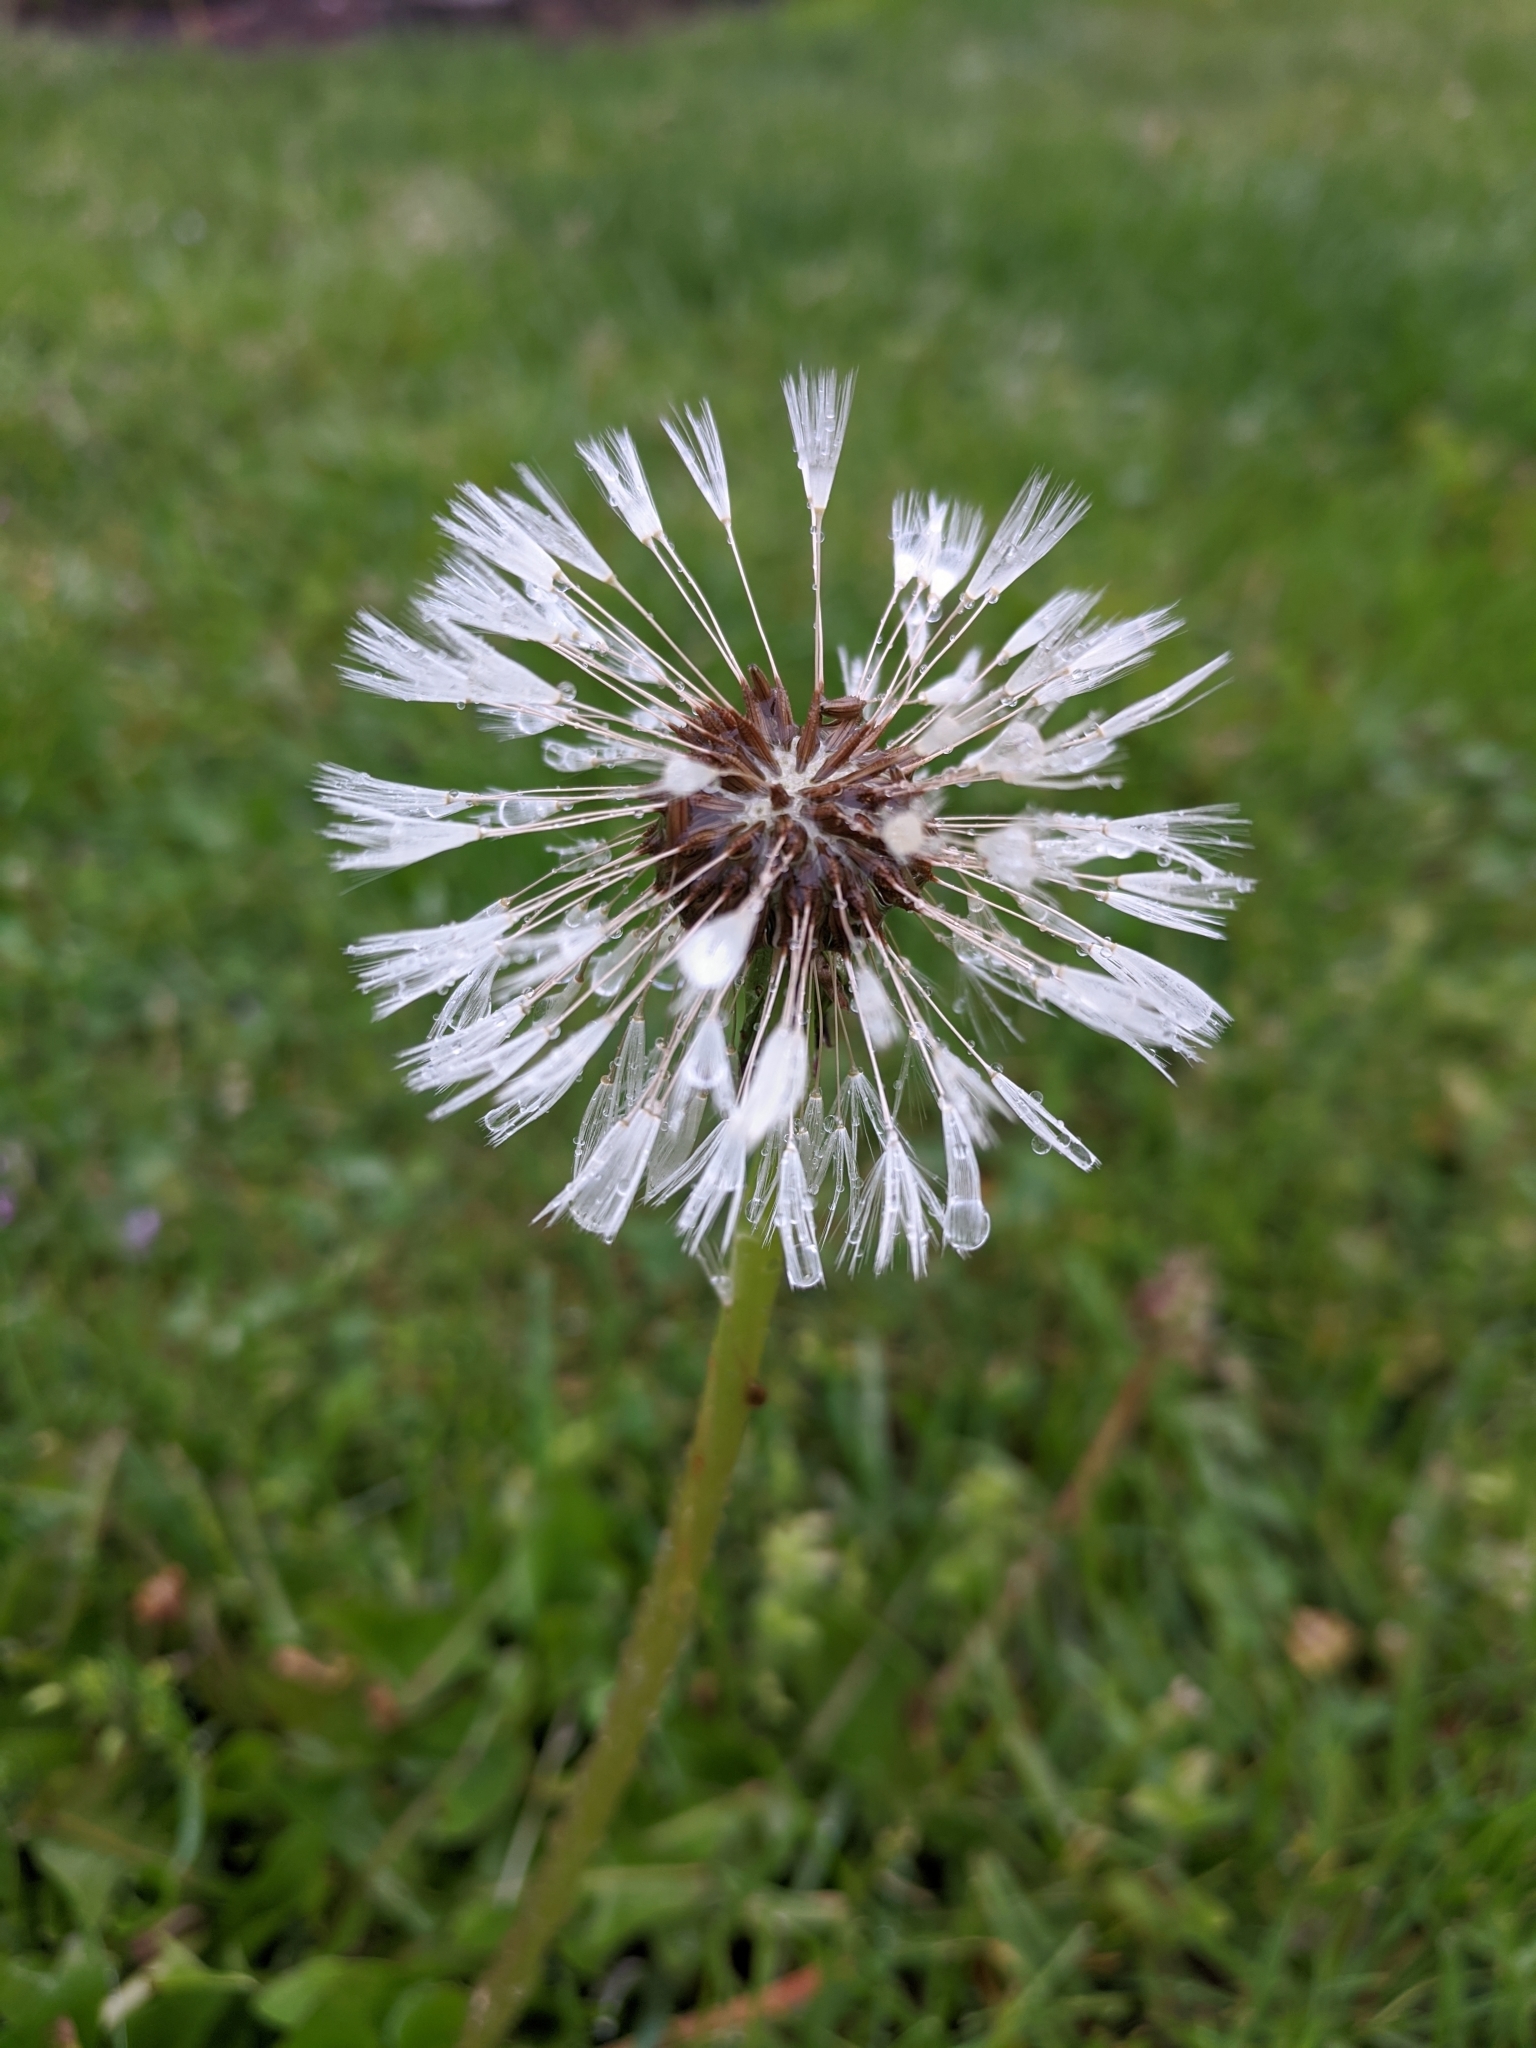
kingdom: Plantae
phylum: Tracheophyta
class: Magnoliopsida
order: Asterales
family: Asteraceae
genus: Taraxacum
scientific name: Taraxacum officinale
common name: Common dandelion
